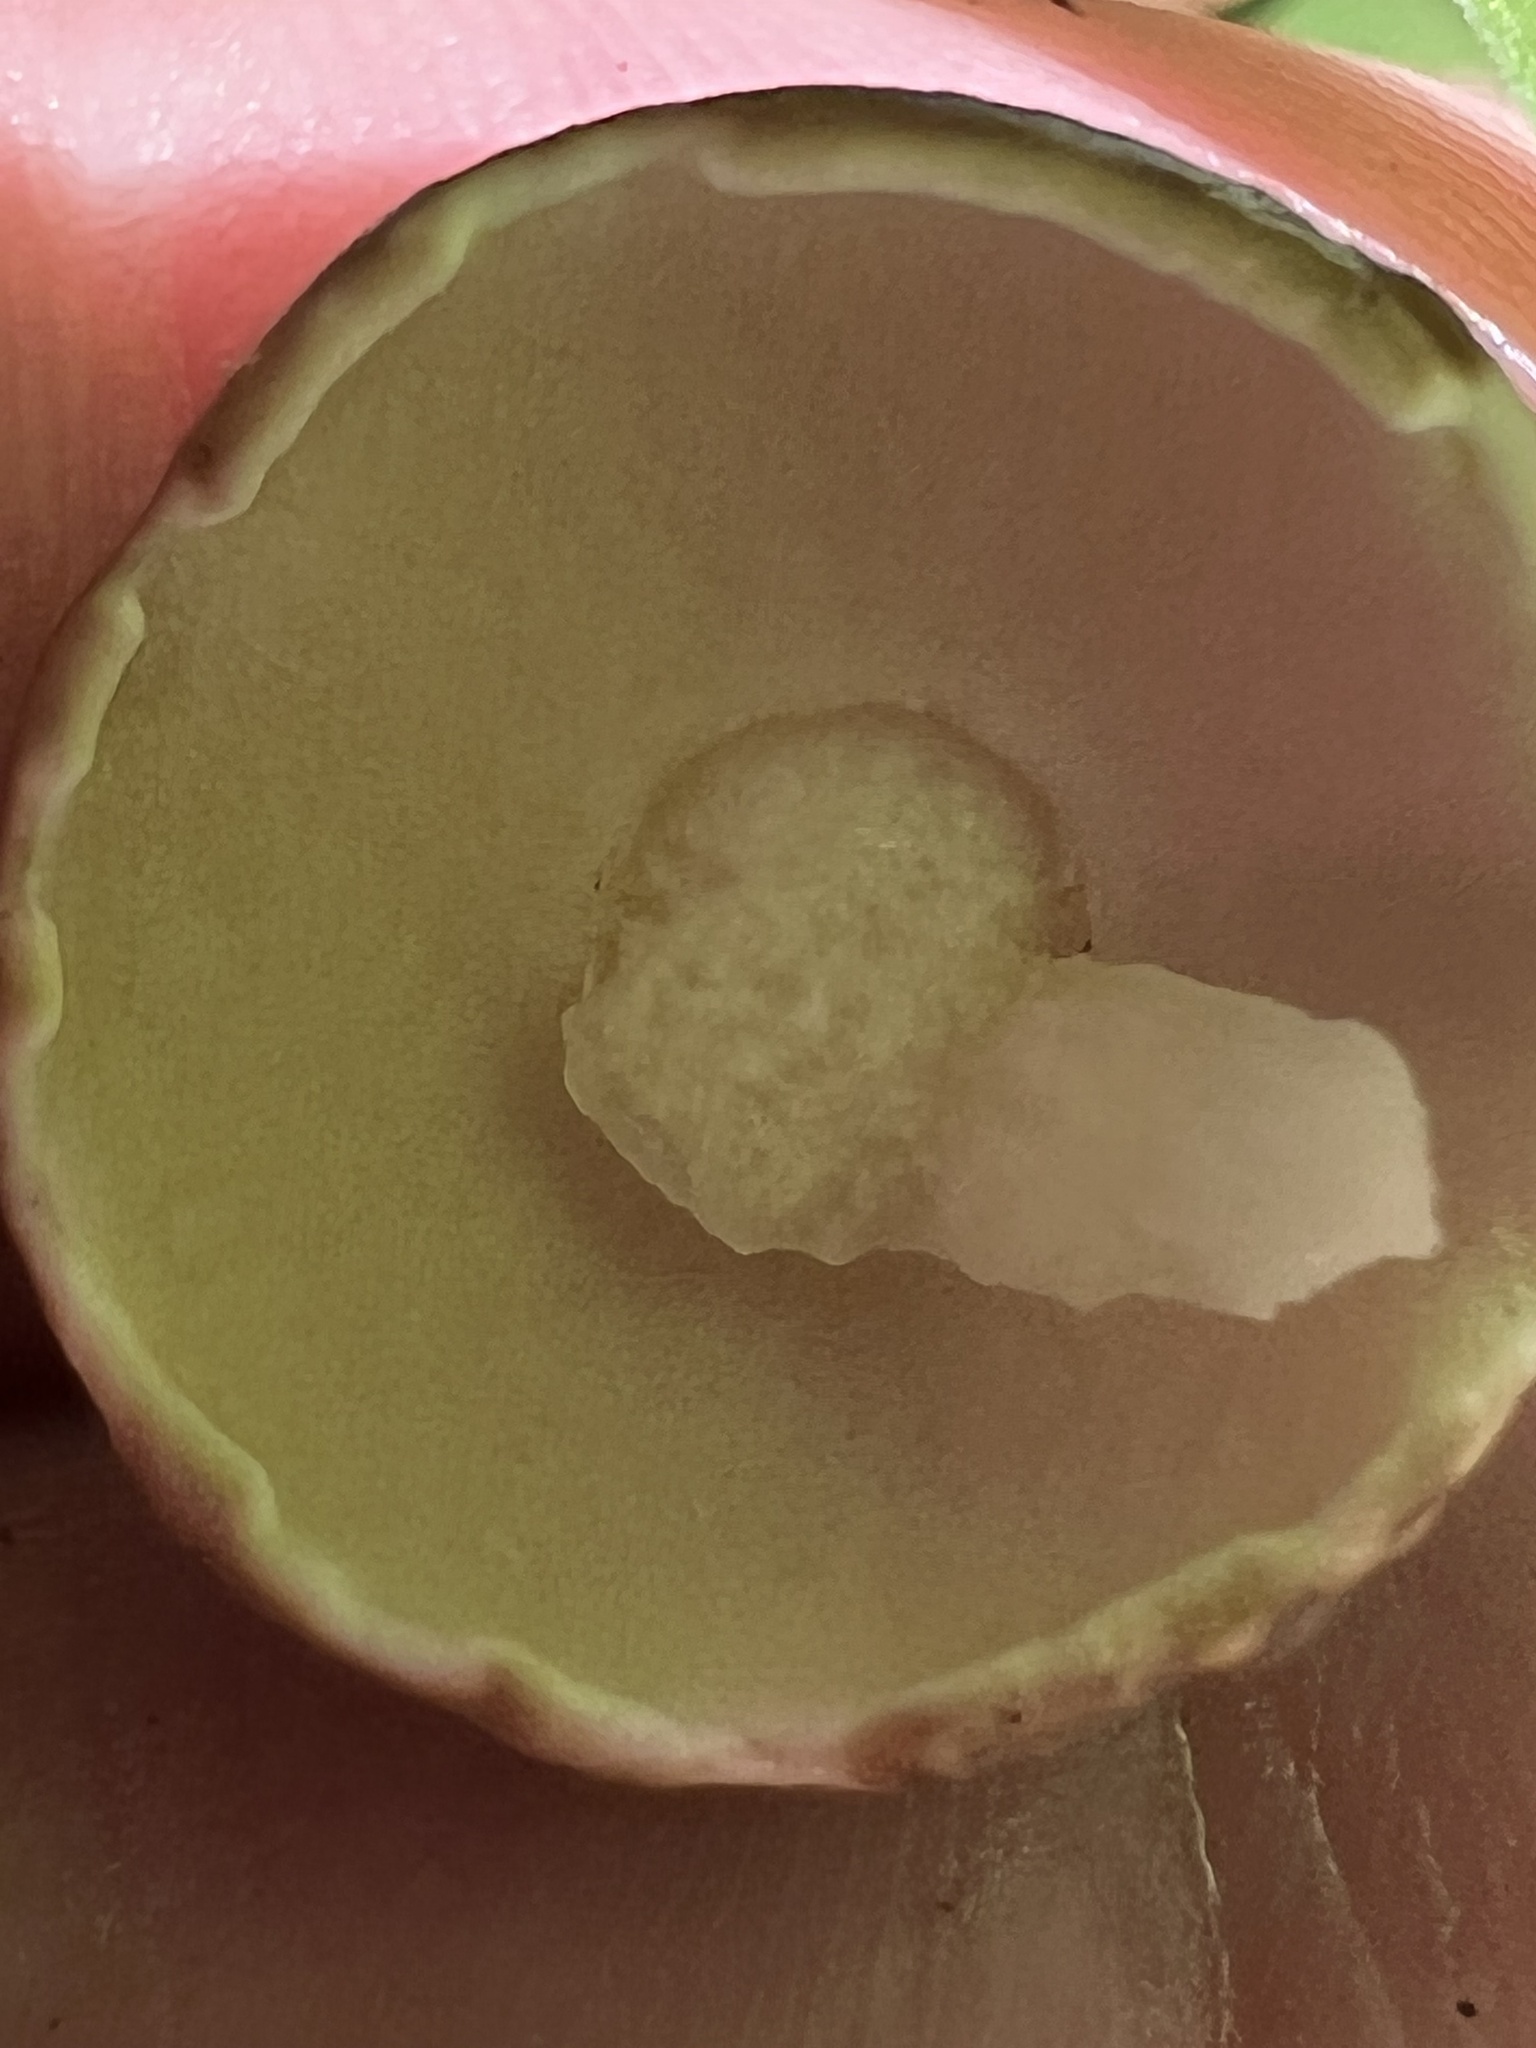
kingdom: Fungi
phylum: Basidiomycota
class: Agaricomycetes
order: Boletales
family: Boletaceae
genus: Xanthoconium
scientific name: Xanthoconium affine
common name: Spotted bolete
